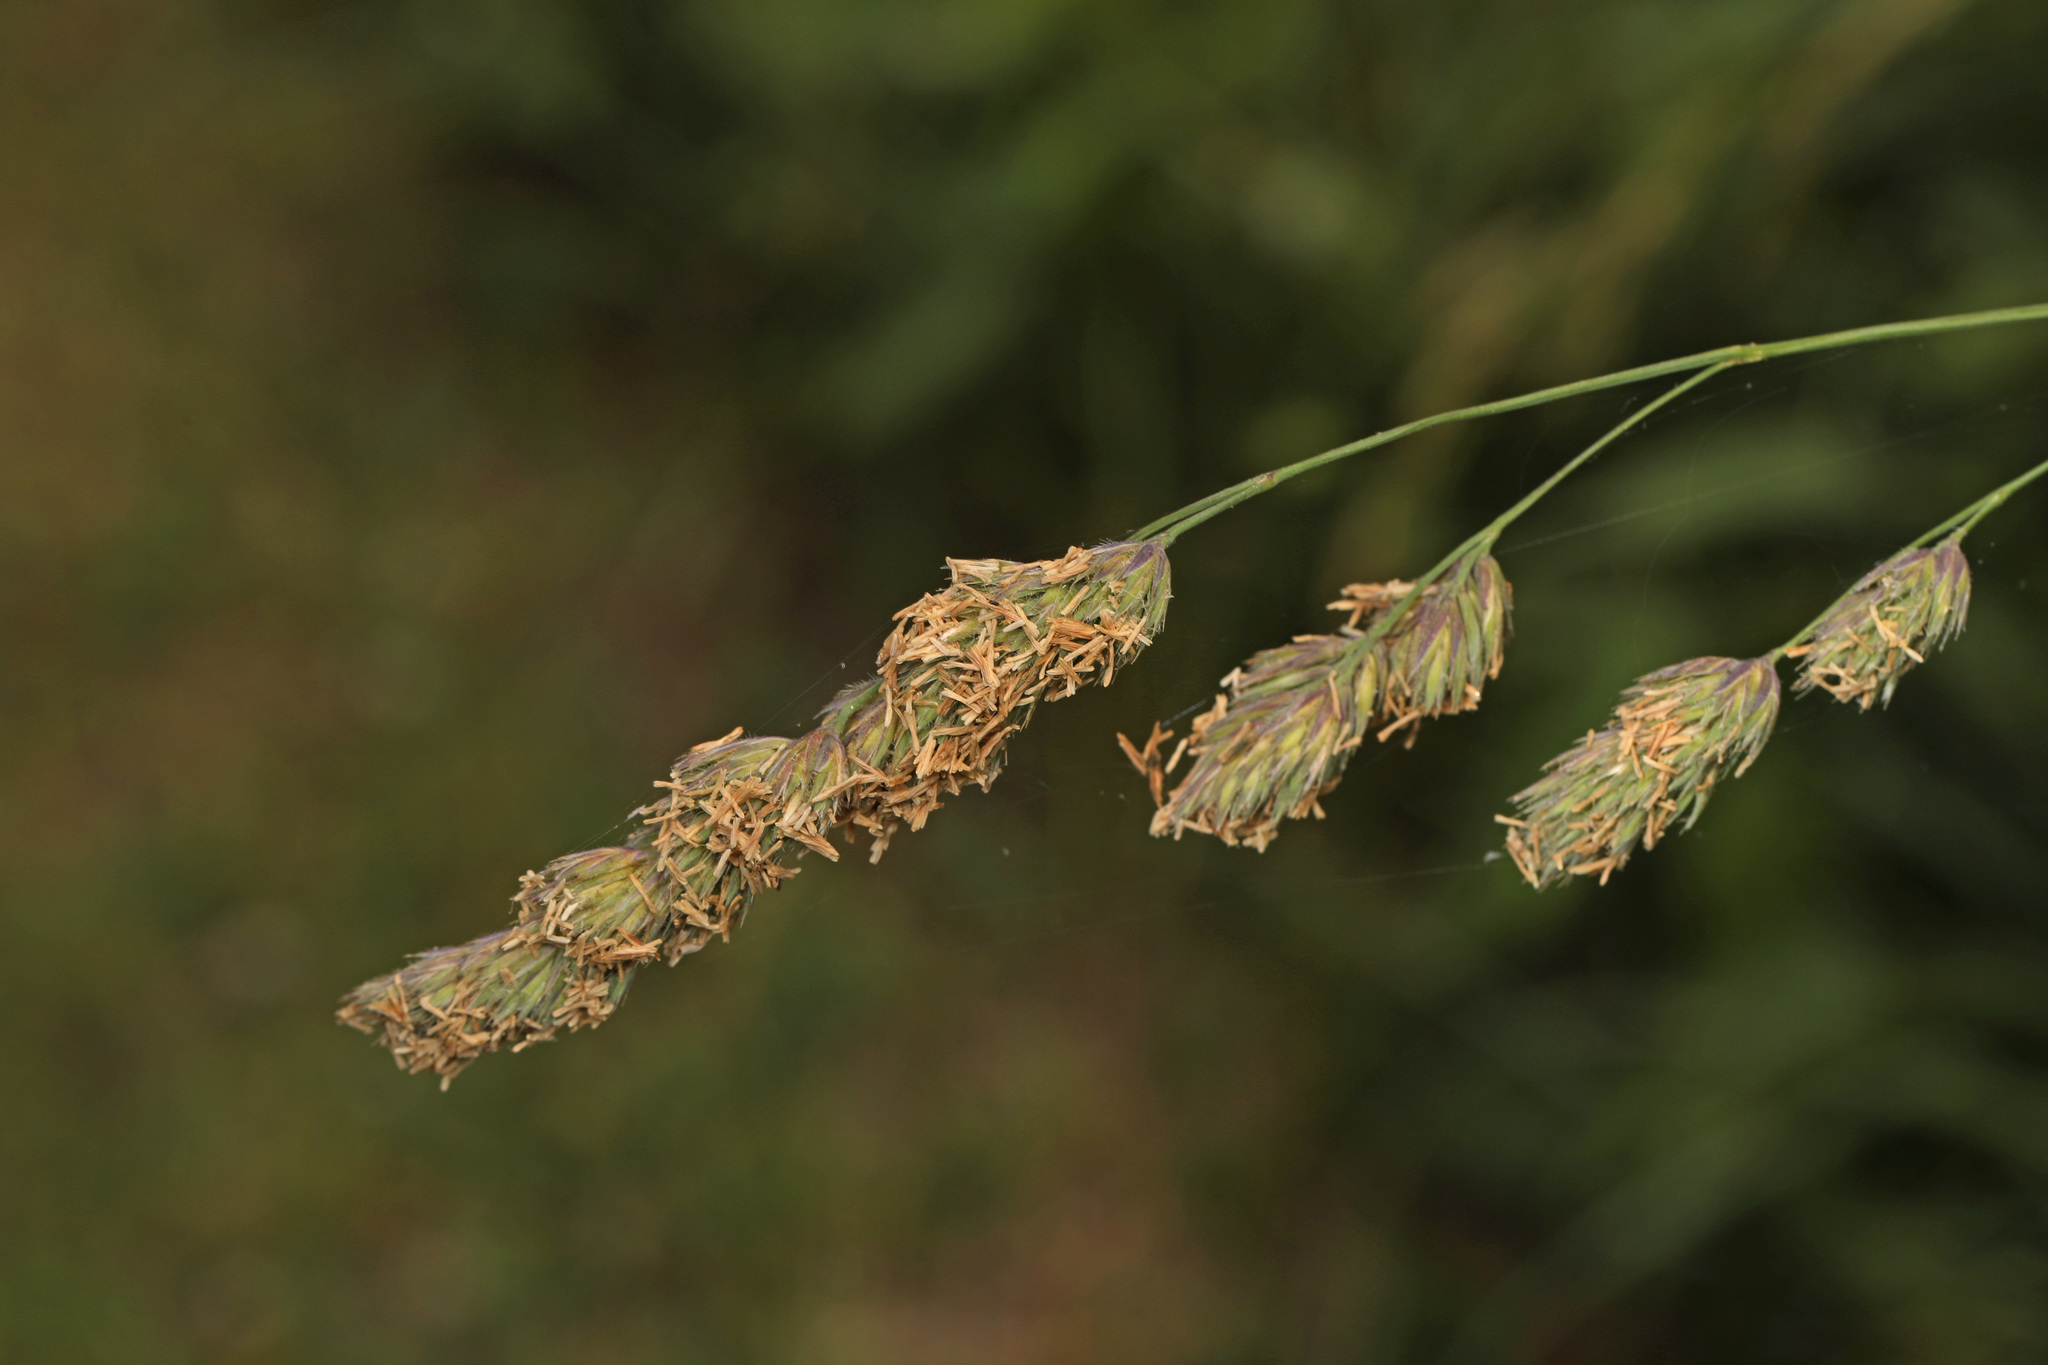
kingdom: Plantae
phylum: Tracheophyta
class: Liliopsida
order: Poales
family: Poaceae
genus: Dactylis
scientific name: Dactylis glomerata
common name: Orchardgrass
